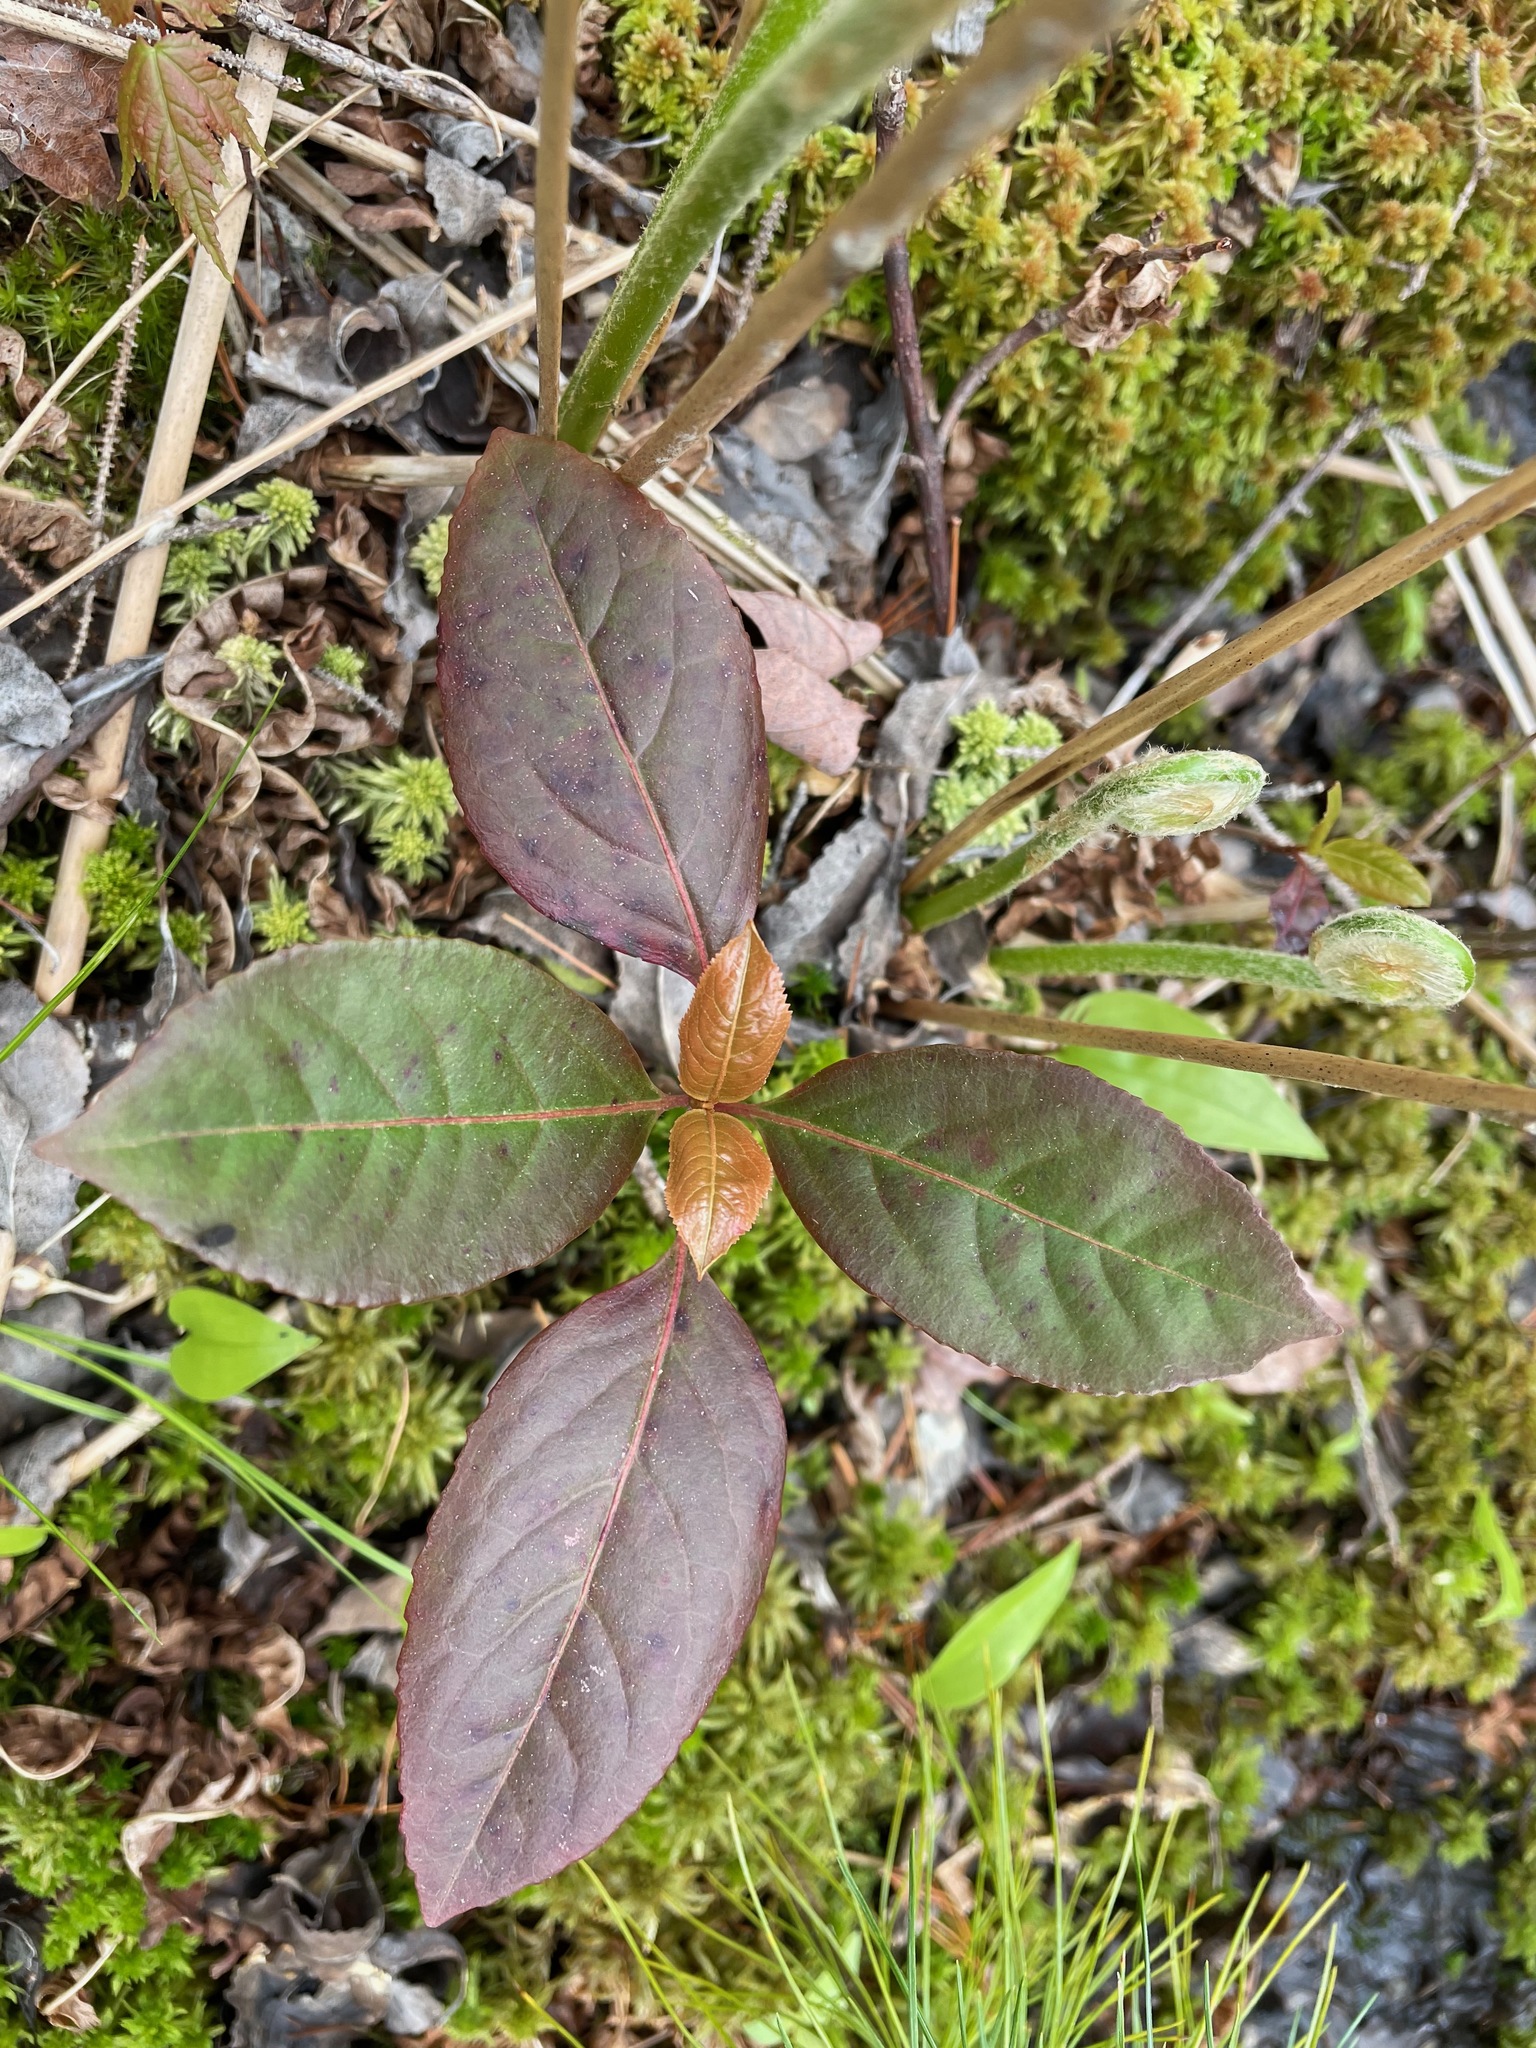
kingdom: Plantae
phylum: Tracheophyta
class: Magnoliopsida
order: Dipsacales
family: Viburnaceae
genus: Viburnum
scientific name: Viburnum cassinoides
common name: Swamp haw
